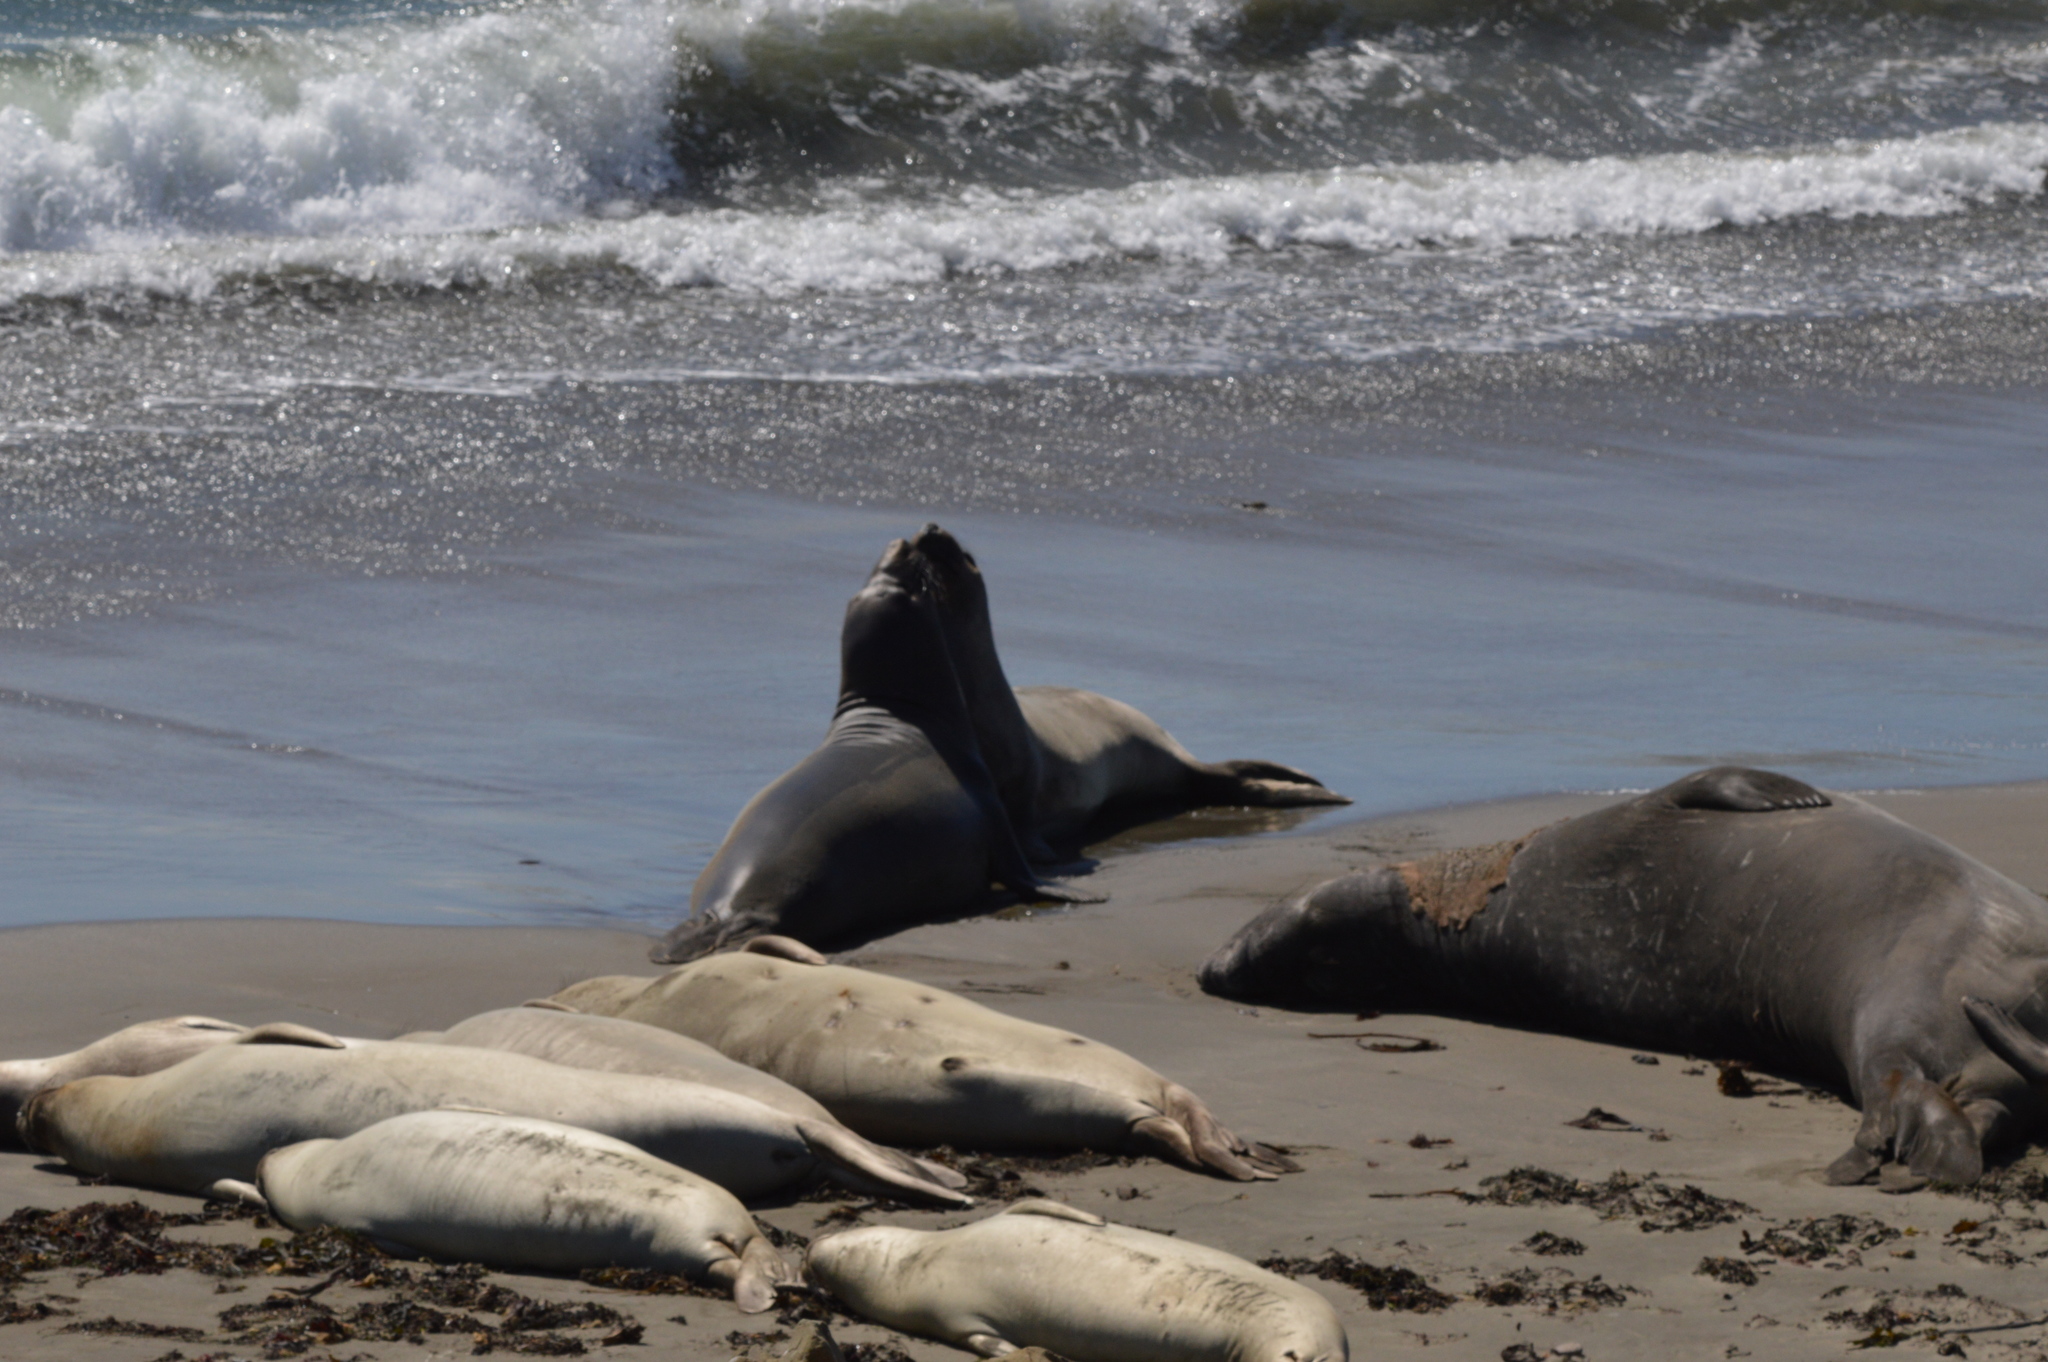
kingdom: Animalia
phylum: Chordata
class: Mammalia
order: Carnivora
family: Phocidae
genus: Mirounga
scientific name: Mirounga angustirostris
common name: Northern elephant seal
